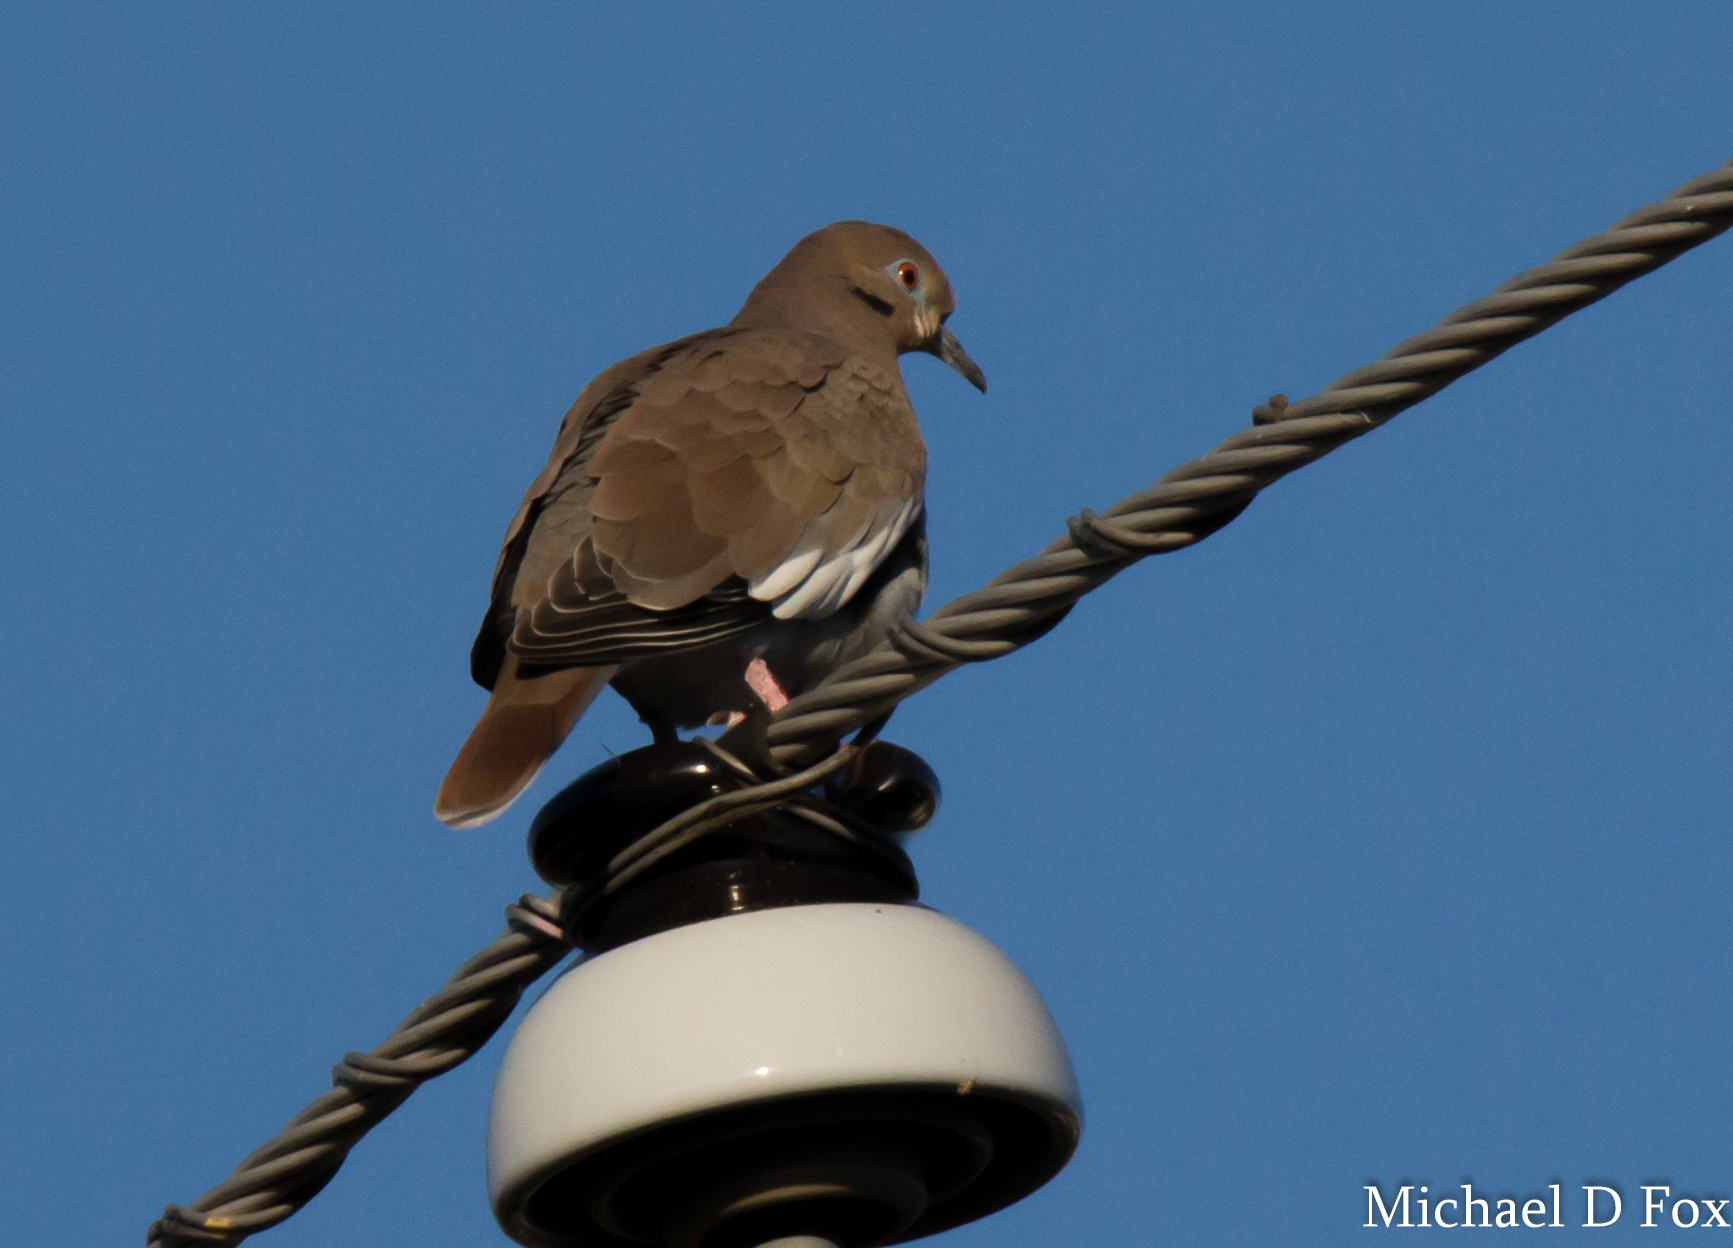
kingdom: Animalia
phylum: Chordata
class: Aves
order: Columbiformes
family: Columbidae
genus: Zenaida
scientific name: Zenaida asiatica
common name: White-winged dove
